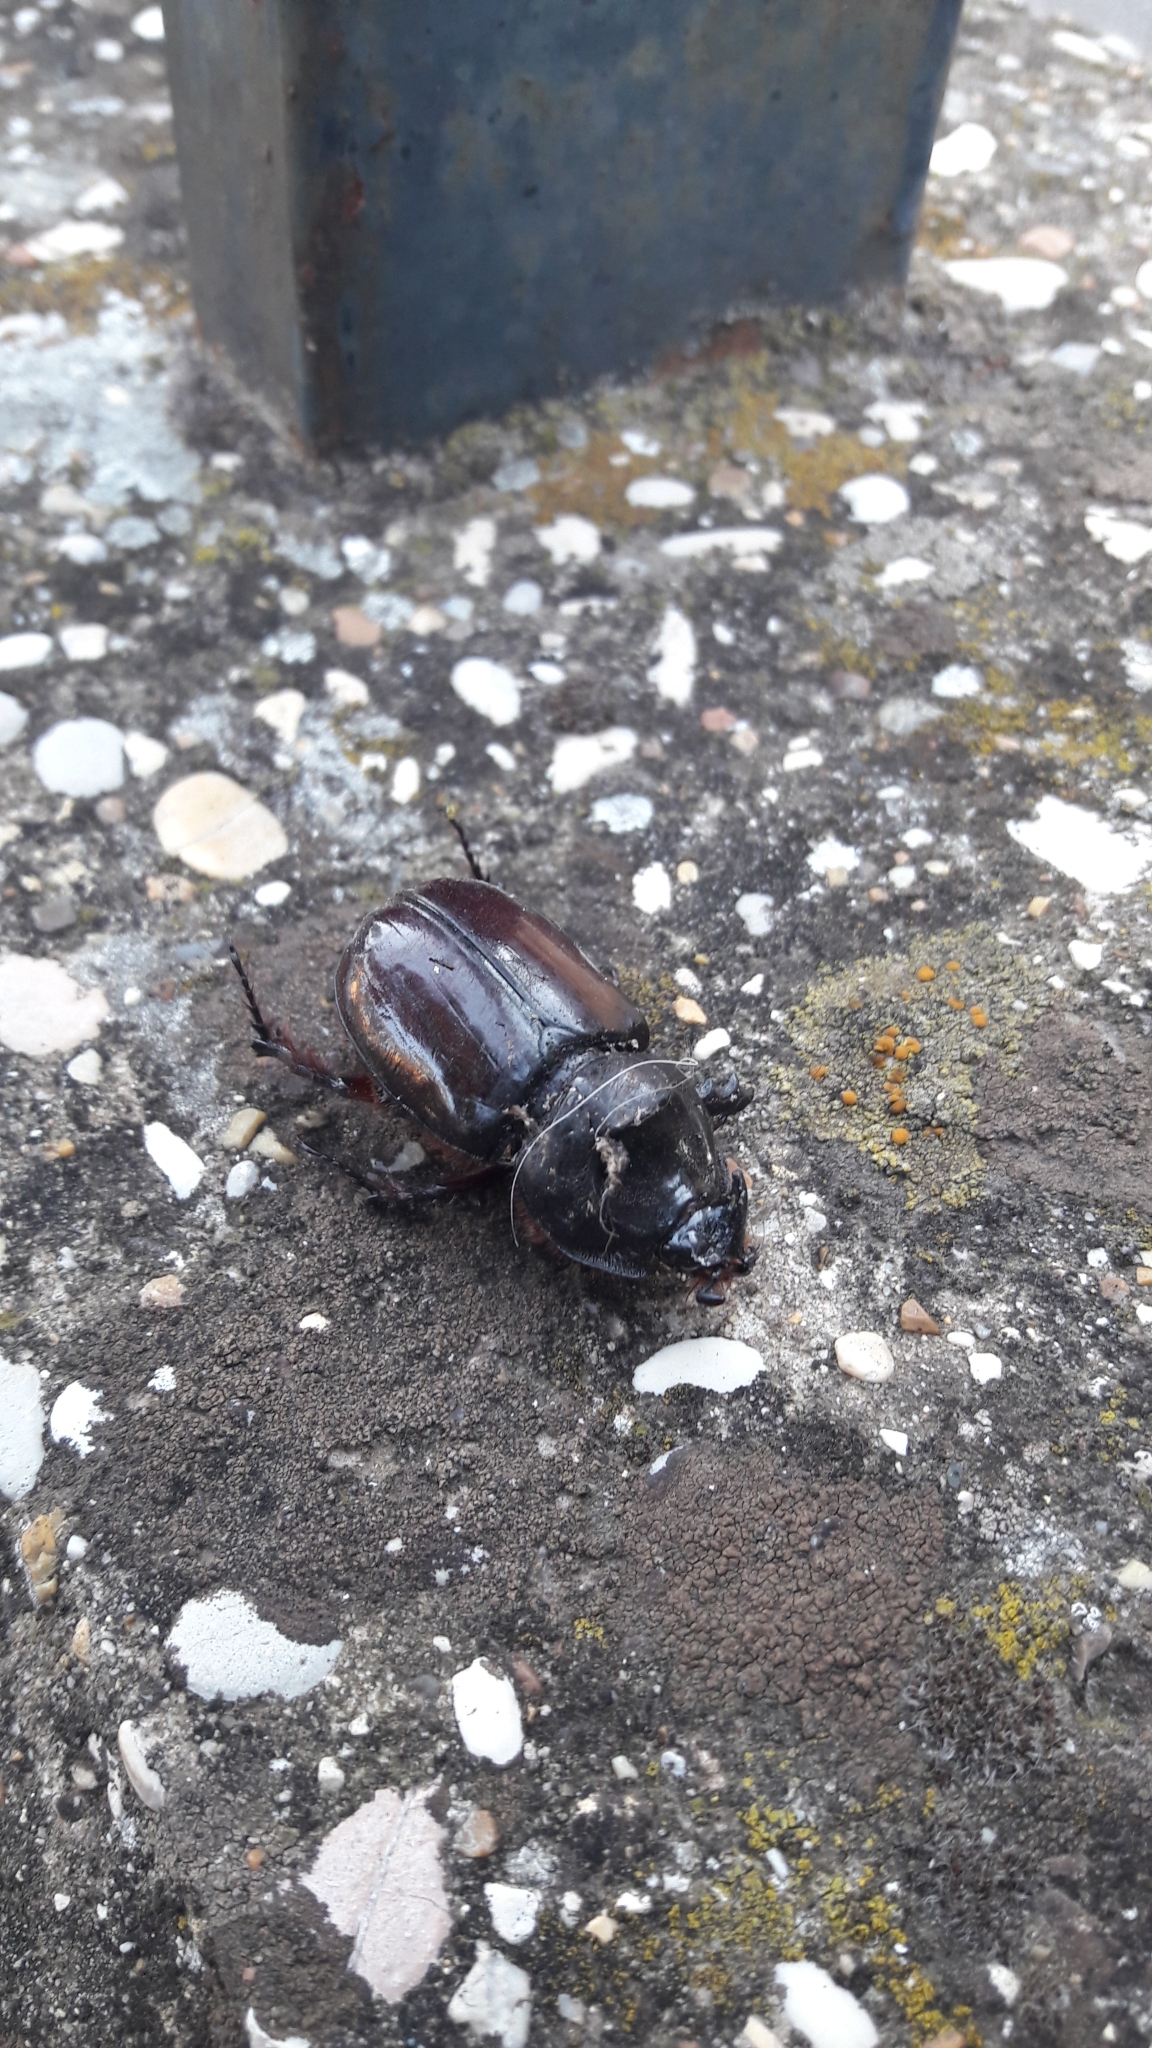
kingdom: Animalia
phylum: Arthropoda
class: Insecta
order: Coleoptera
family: Scarabaeidae
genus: Oryctes
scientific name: Oryctes nasicornis
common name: European rhinoceros beetle
